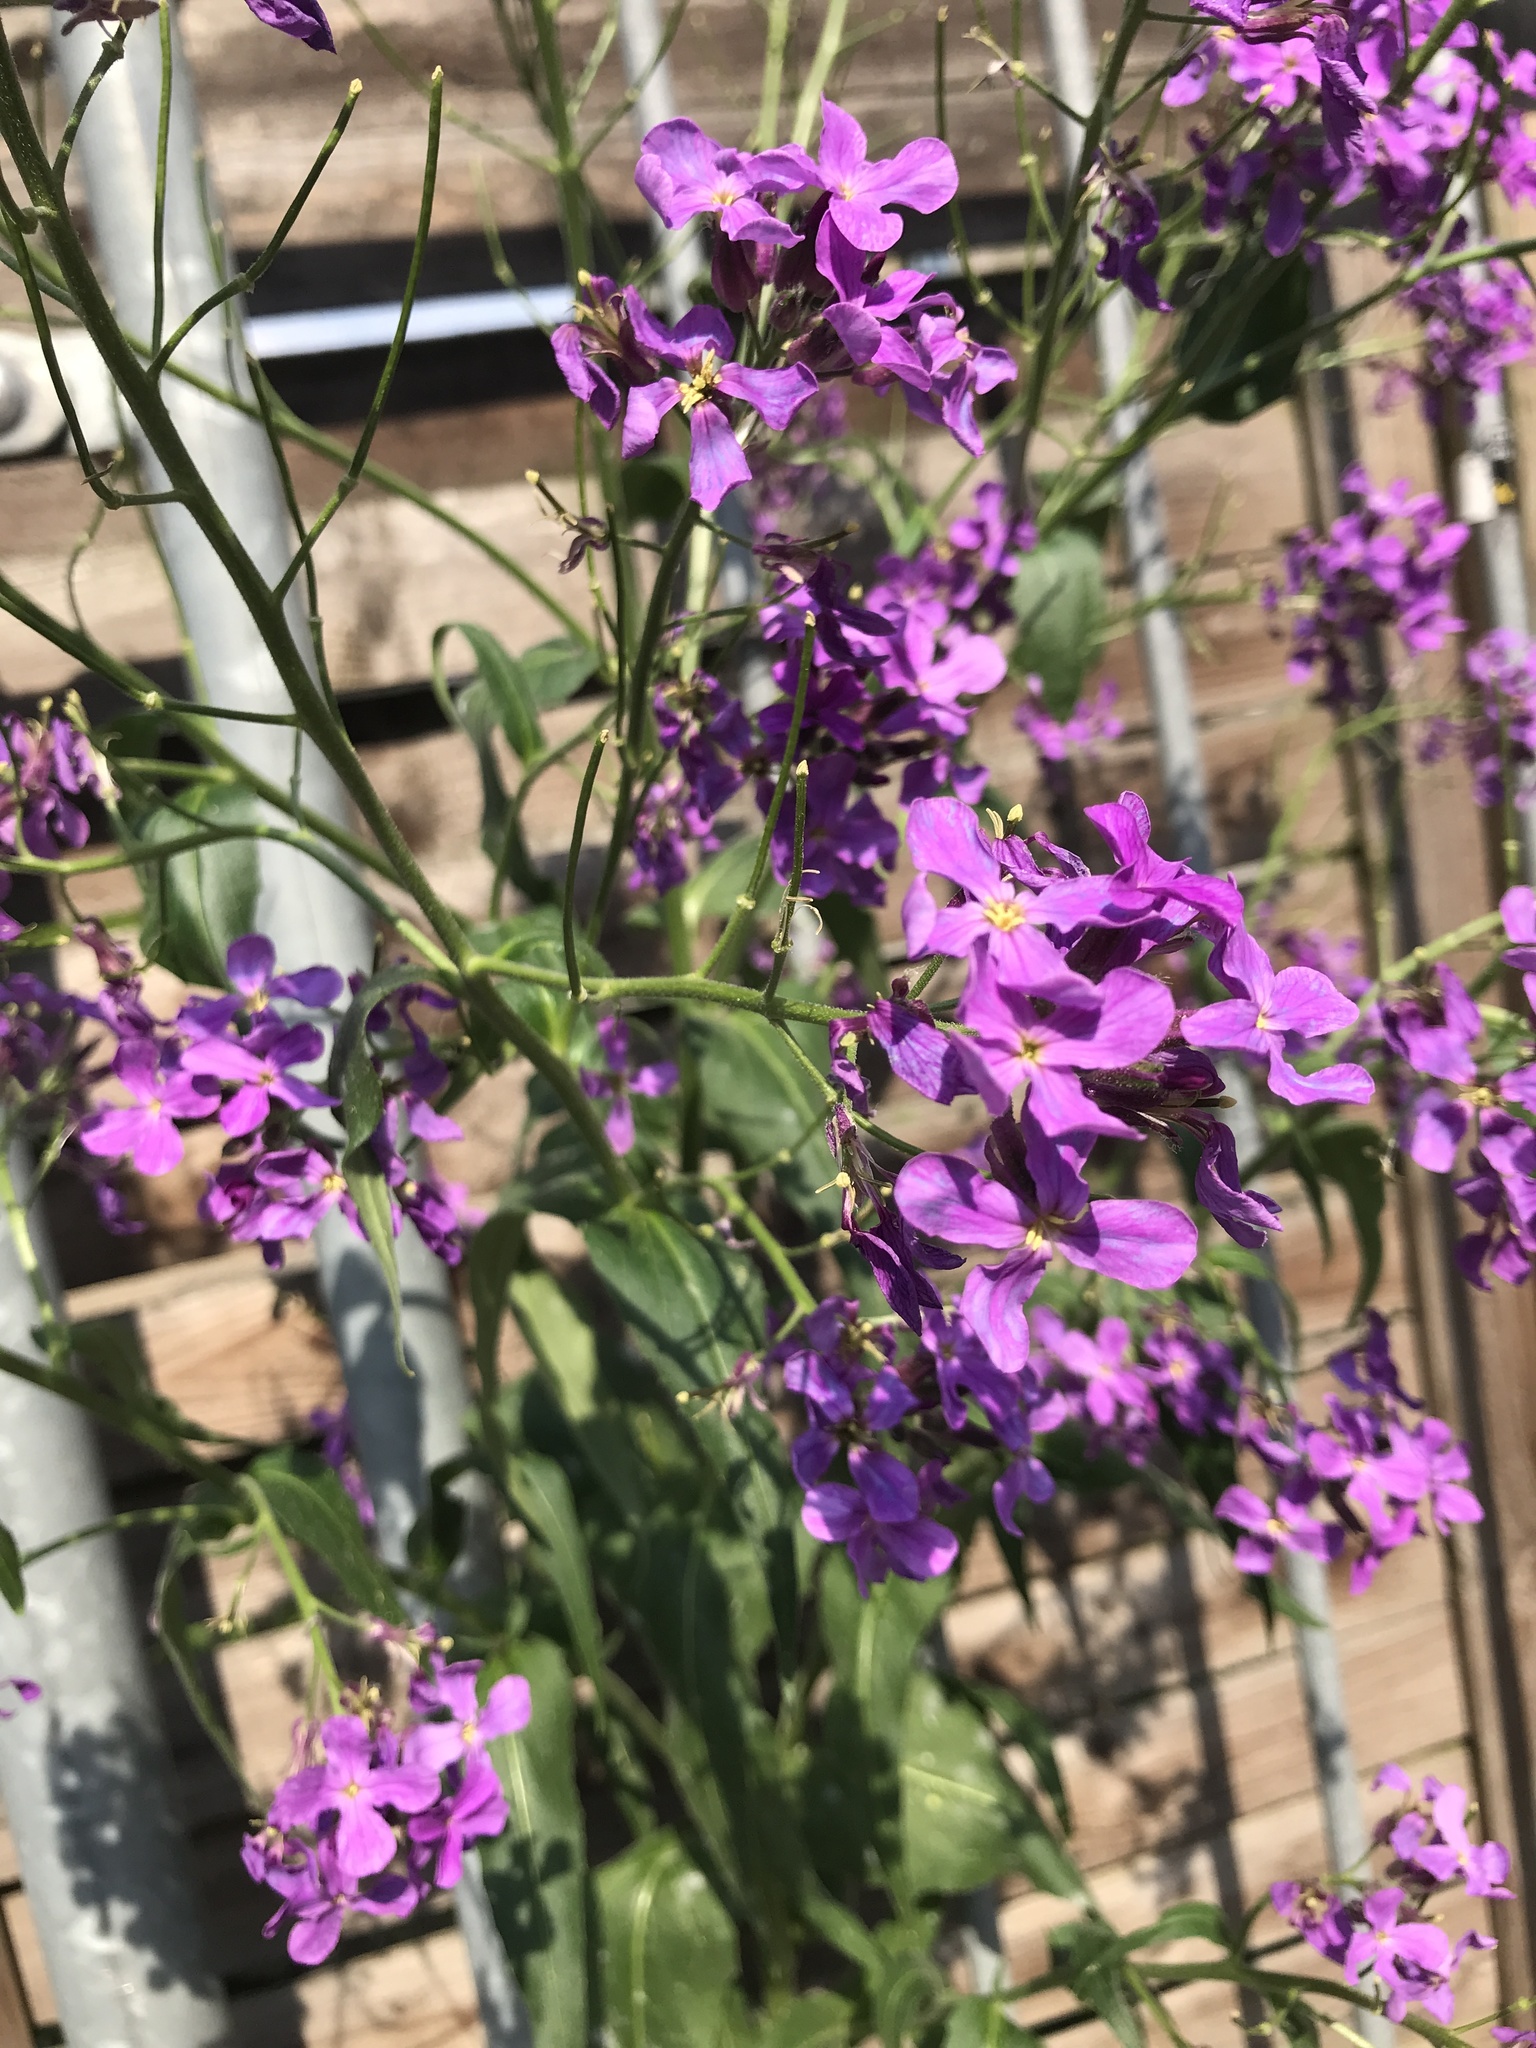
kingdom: Plantae
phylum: Tracheophyta
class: Magnoliopsida
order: Brassicales
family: Brassicaceae
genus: Hesperis
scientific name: Hesperis matronalis
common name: Dame's-violet
